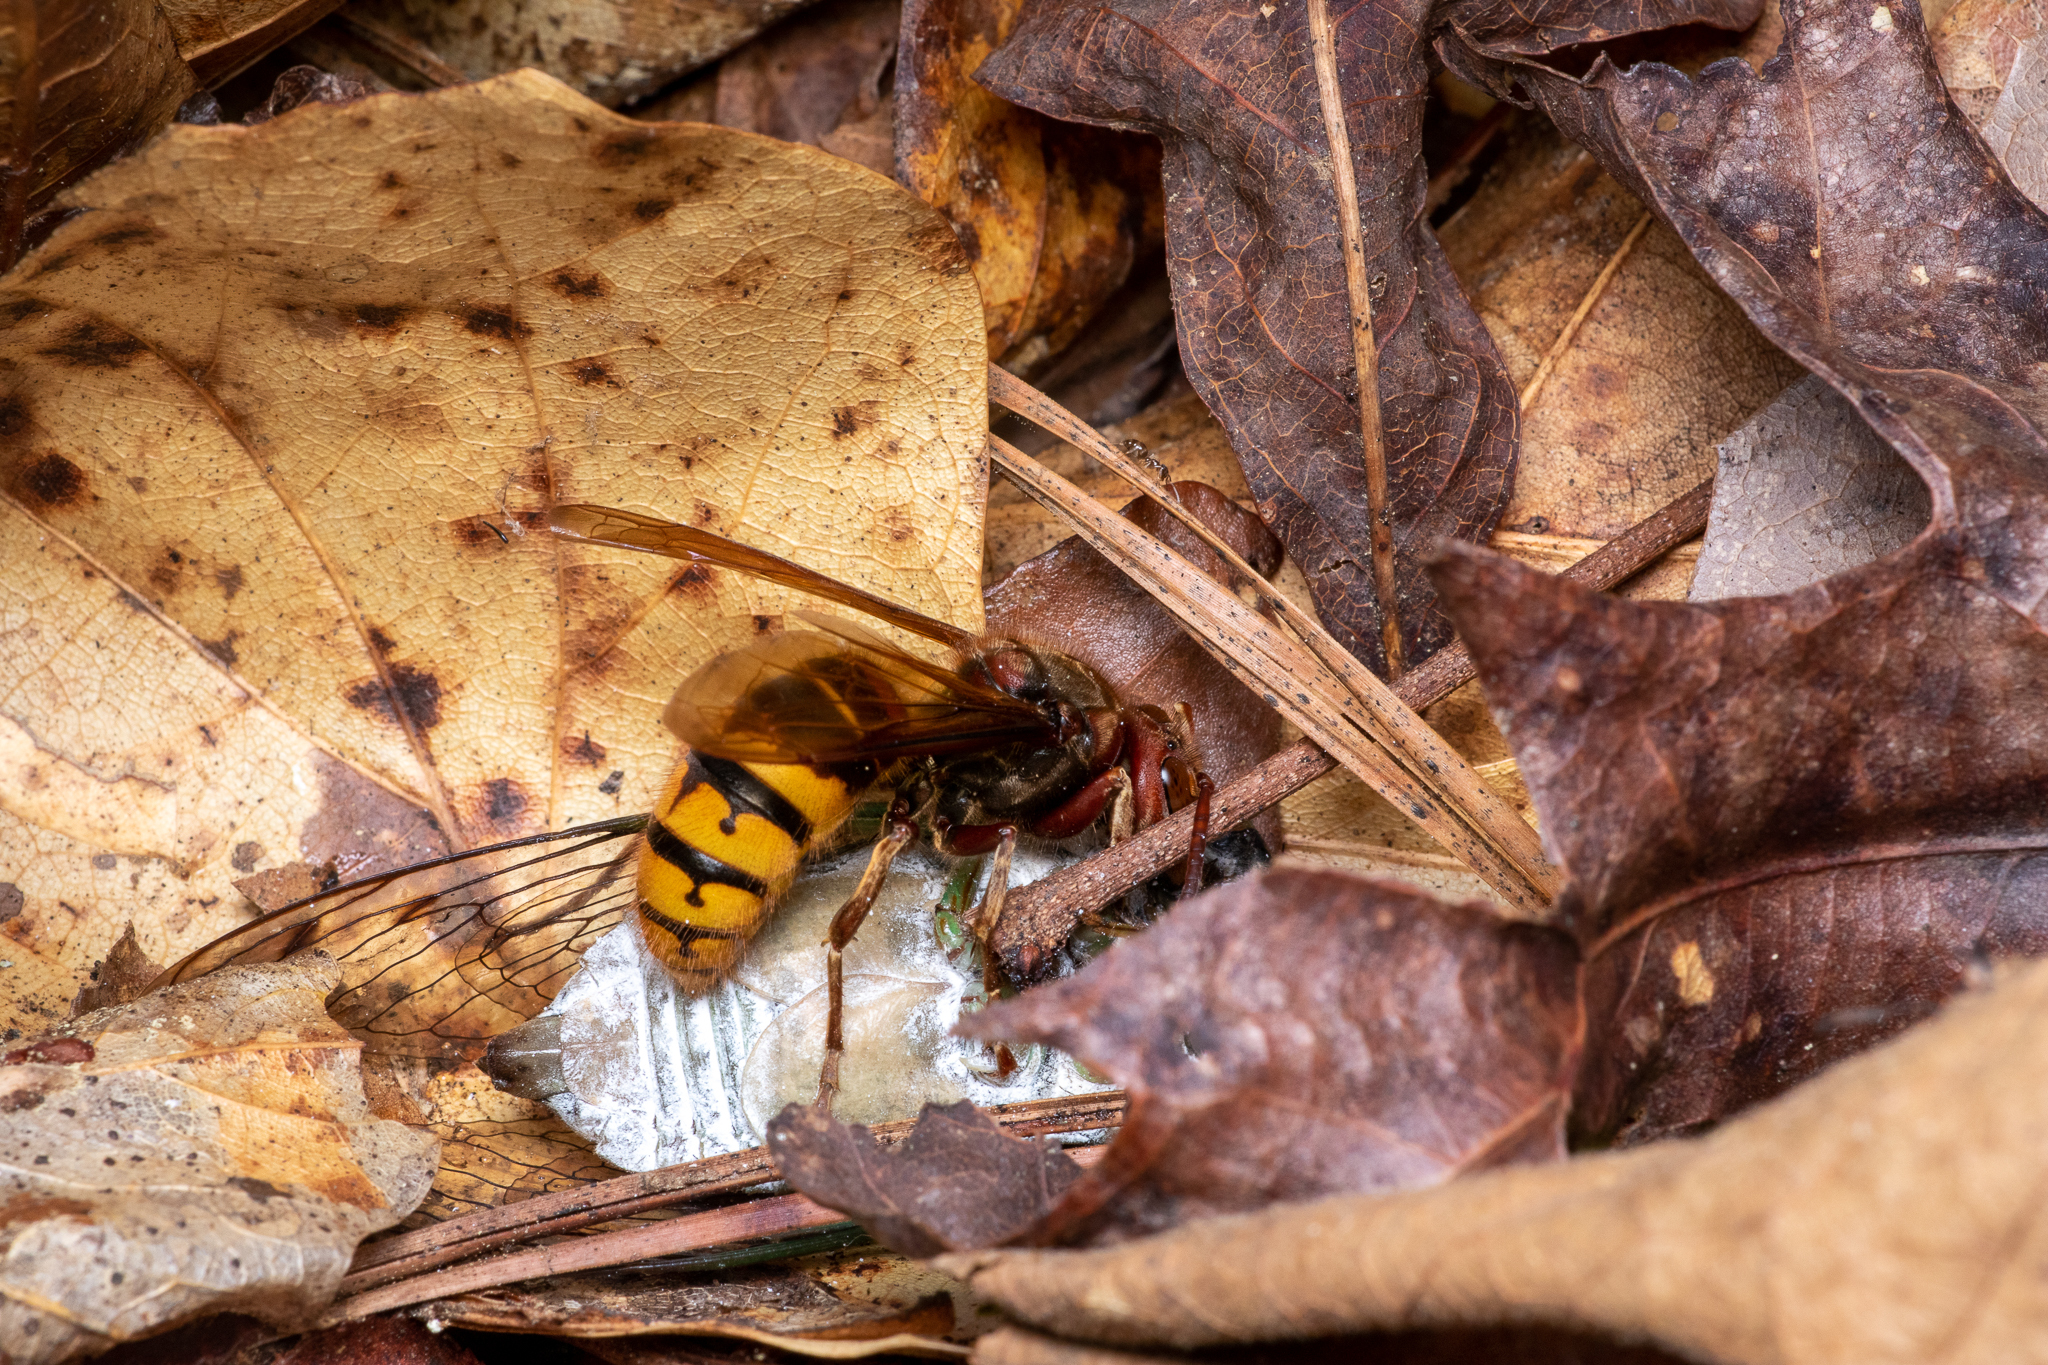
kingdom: Animalia
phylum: Arthropoda
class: Insecta
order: Hymenoptera
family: Vespidae
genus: Vespa
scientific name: Vespa crabro
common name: Hornet
